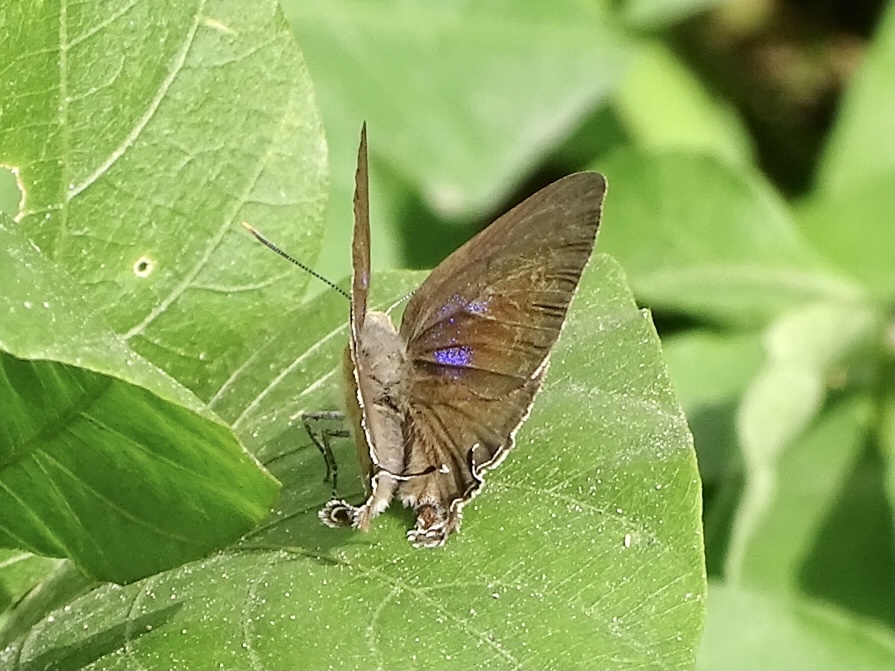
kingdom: Animalia
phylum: Arthropoda
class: Insecta
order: Lepidoptera
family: Lycaenidae
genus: Remelana
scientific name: Remelana jangala
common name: Chocolate royal
